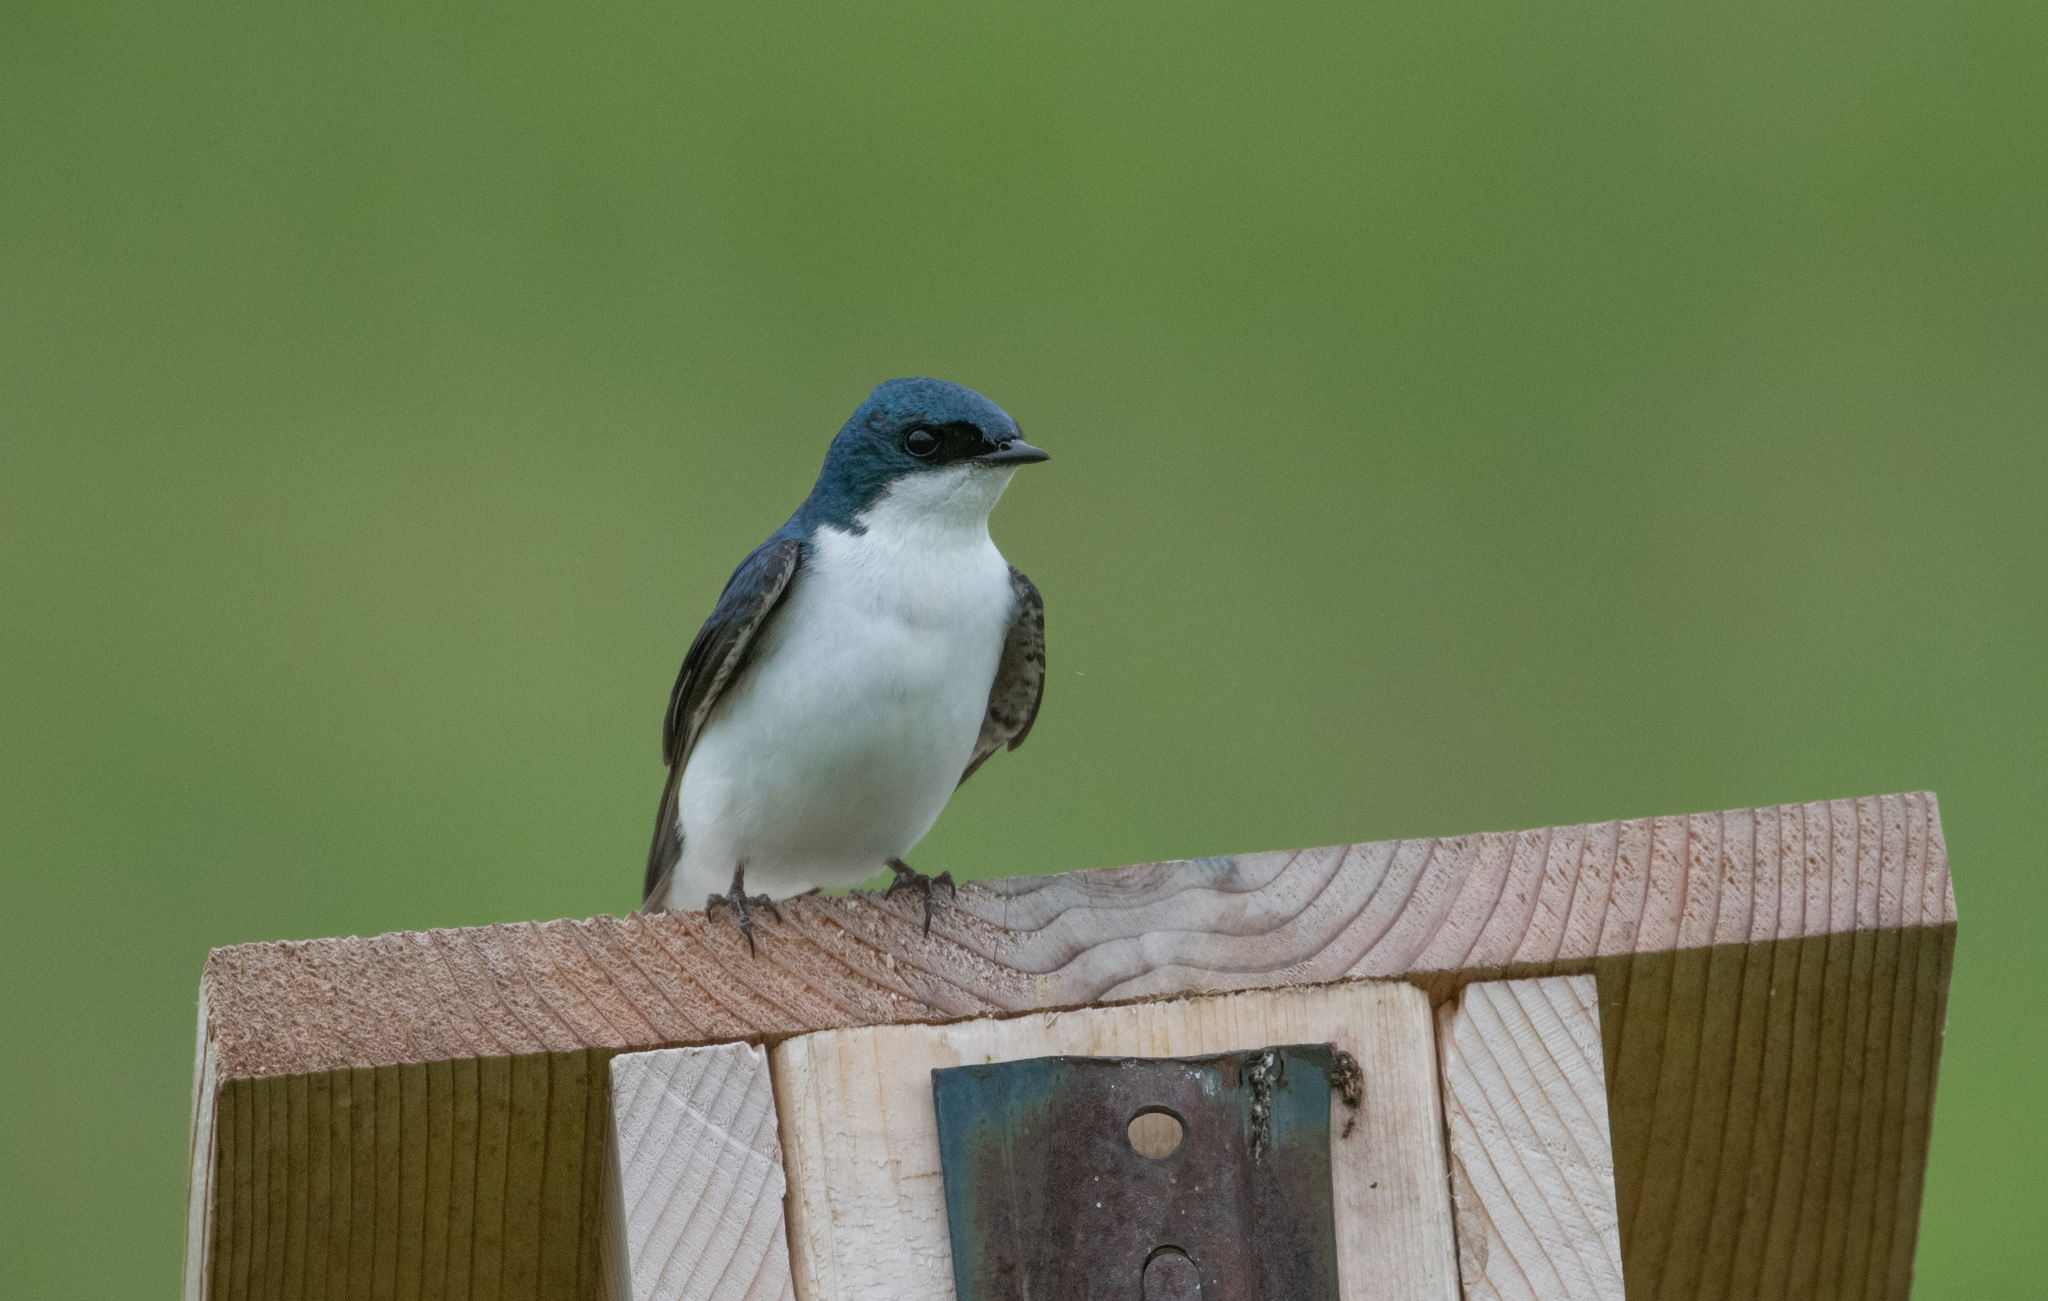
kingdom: Animalia
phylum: Chordata
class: Aves
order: Passeriformes
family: Hirundinidae
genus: Tachycineta
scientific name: Tachycineta bicolor
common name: Tree swallow
